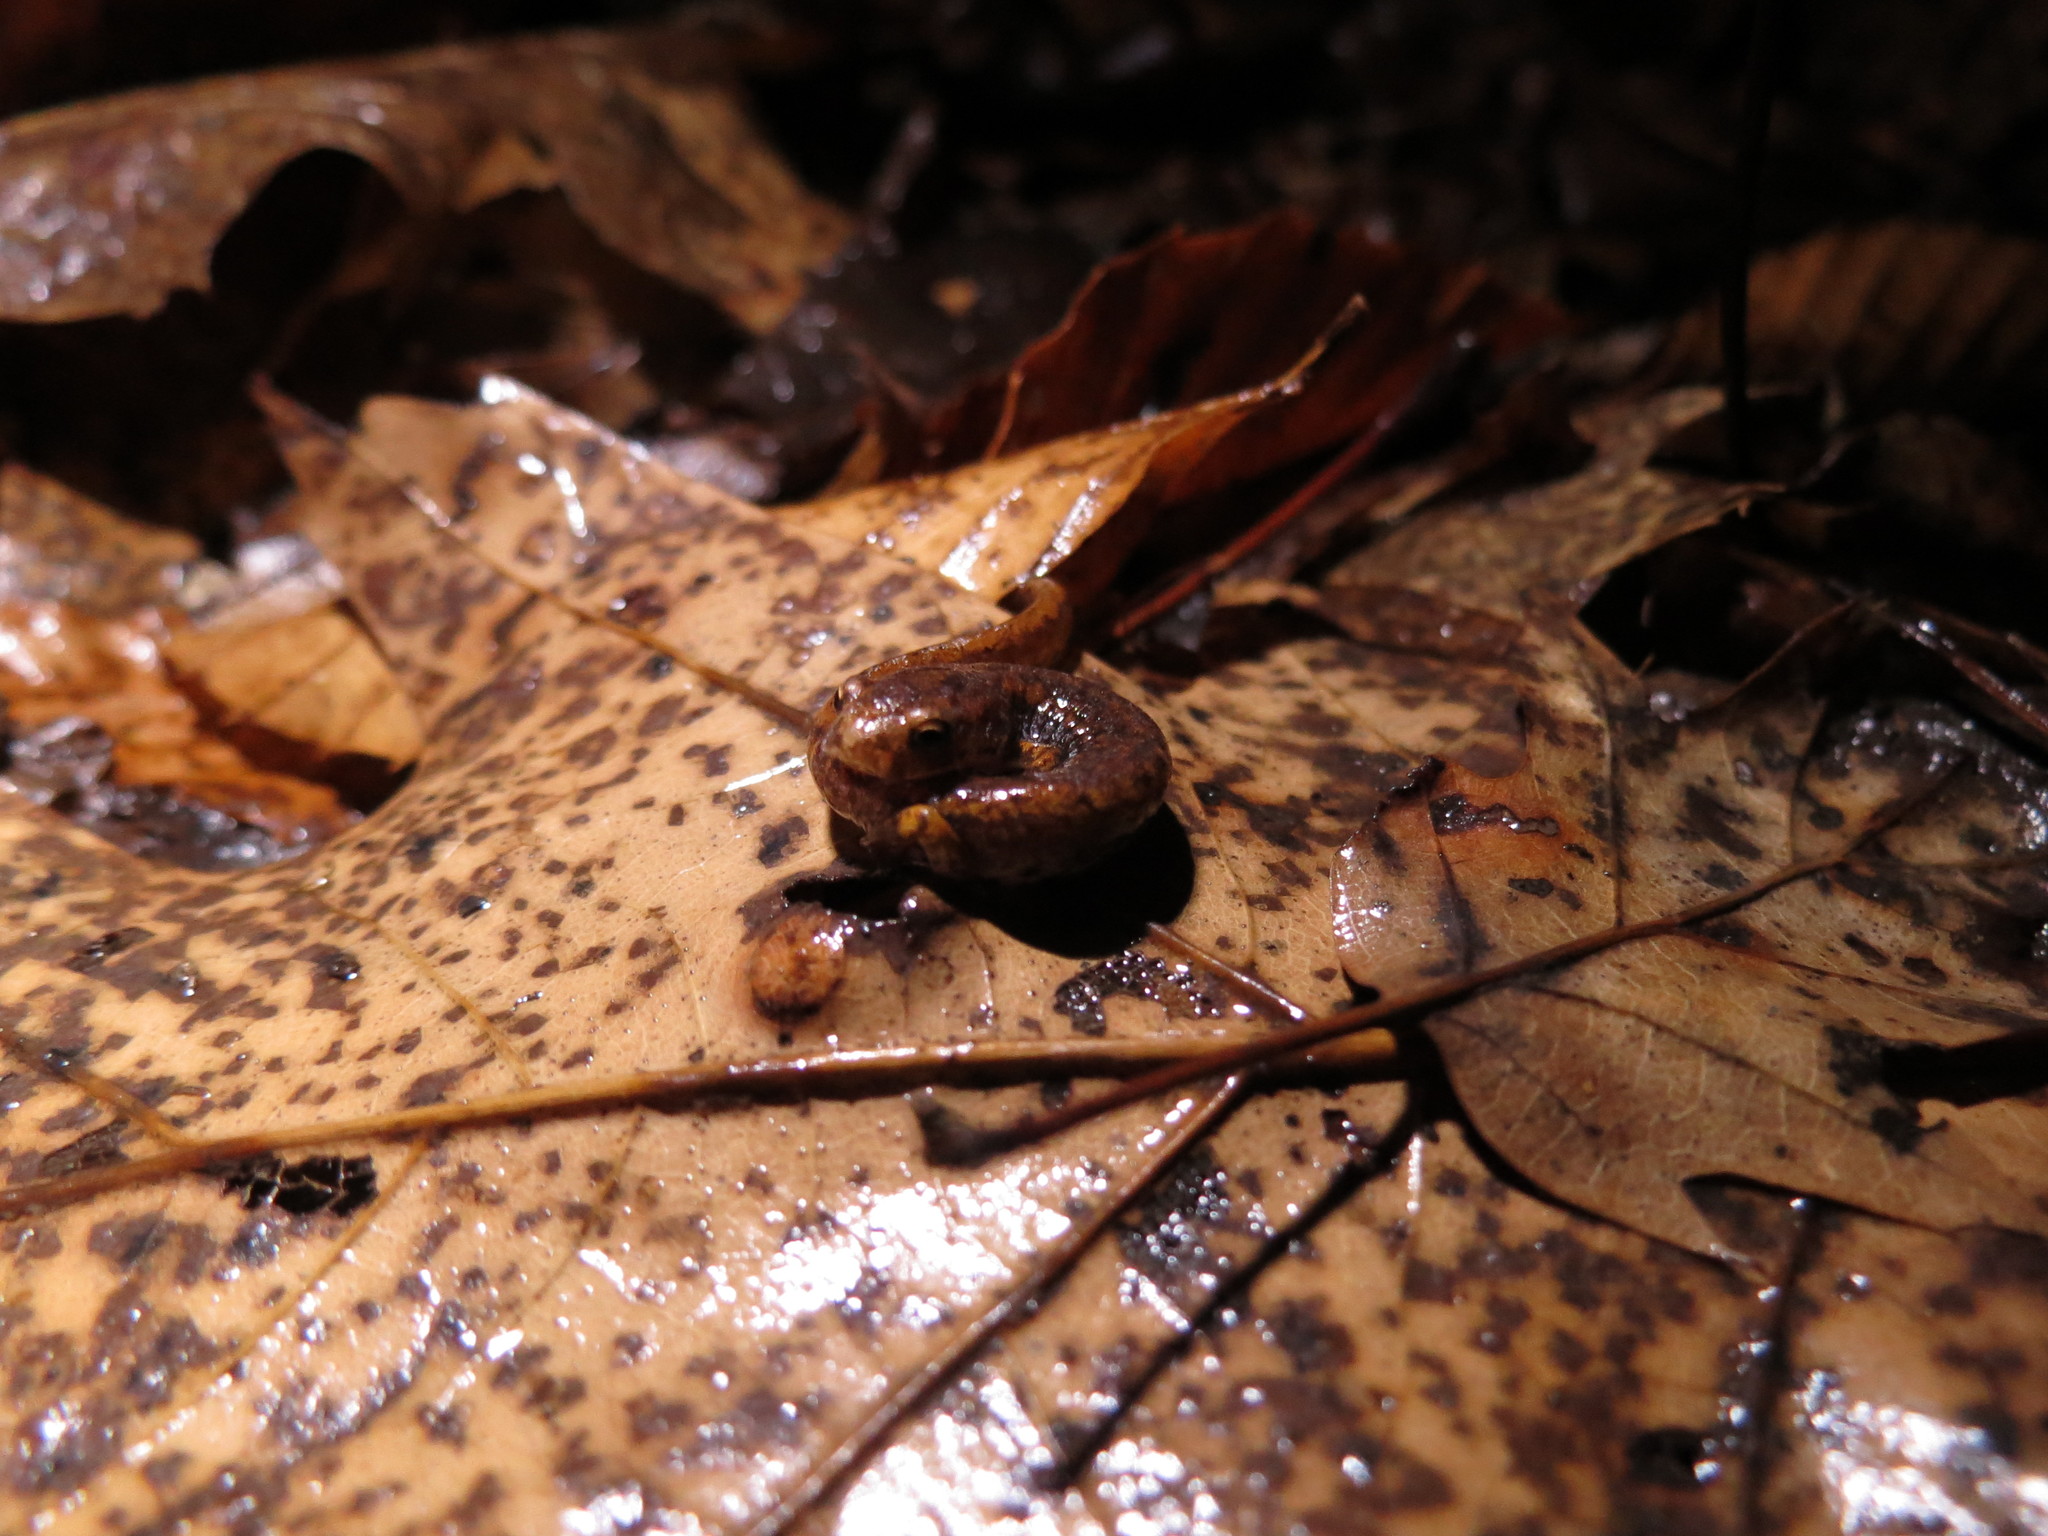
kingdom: Animalia
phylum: Chordata
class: Amphibia
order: Caudata
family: Plethodontidae
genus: Hemidactylium
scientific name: Hemidactylium scutatum
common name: Four-toed salamander
